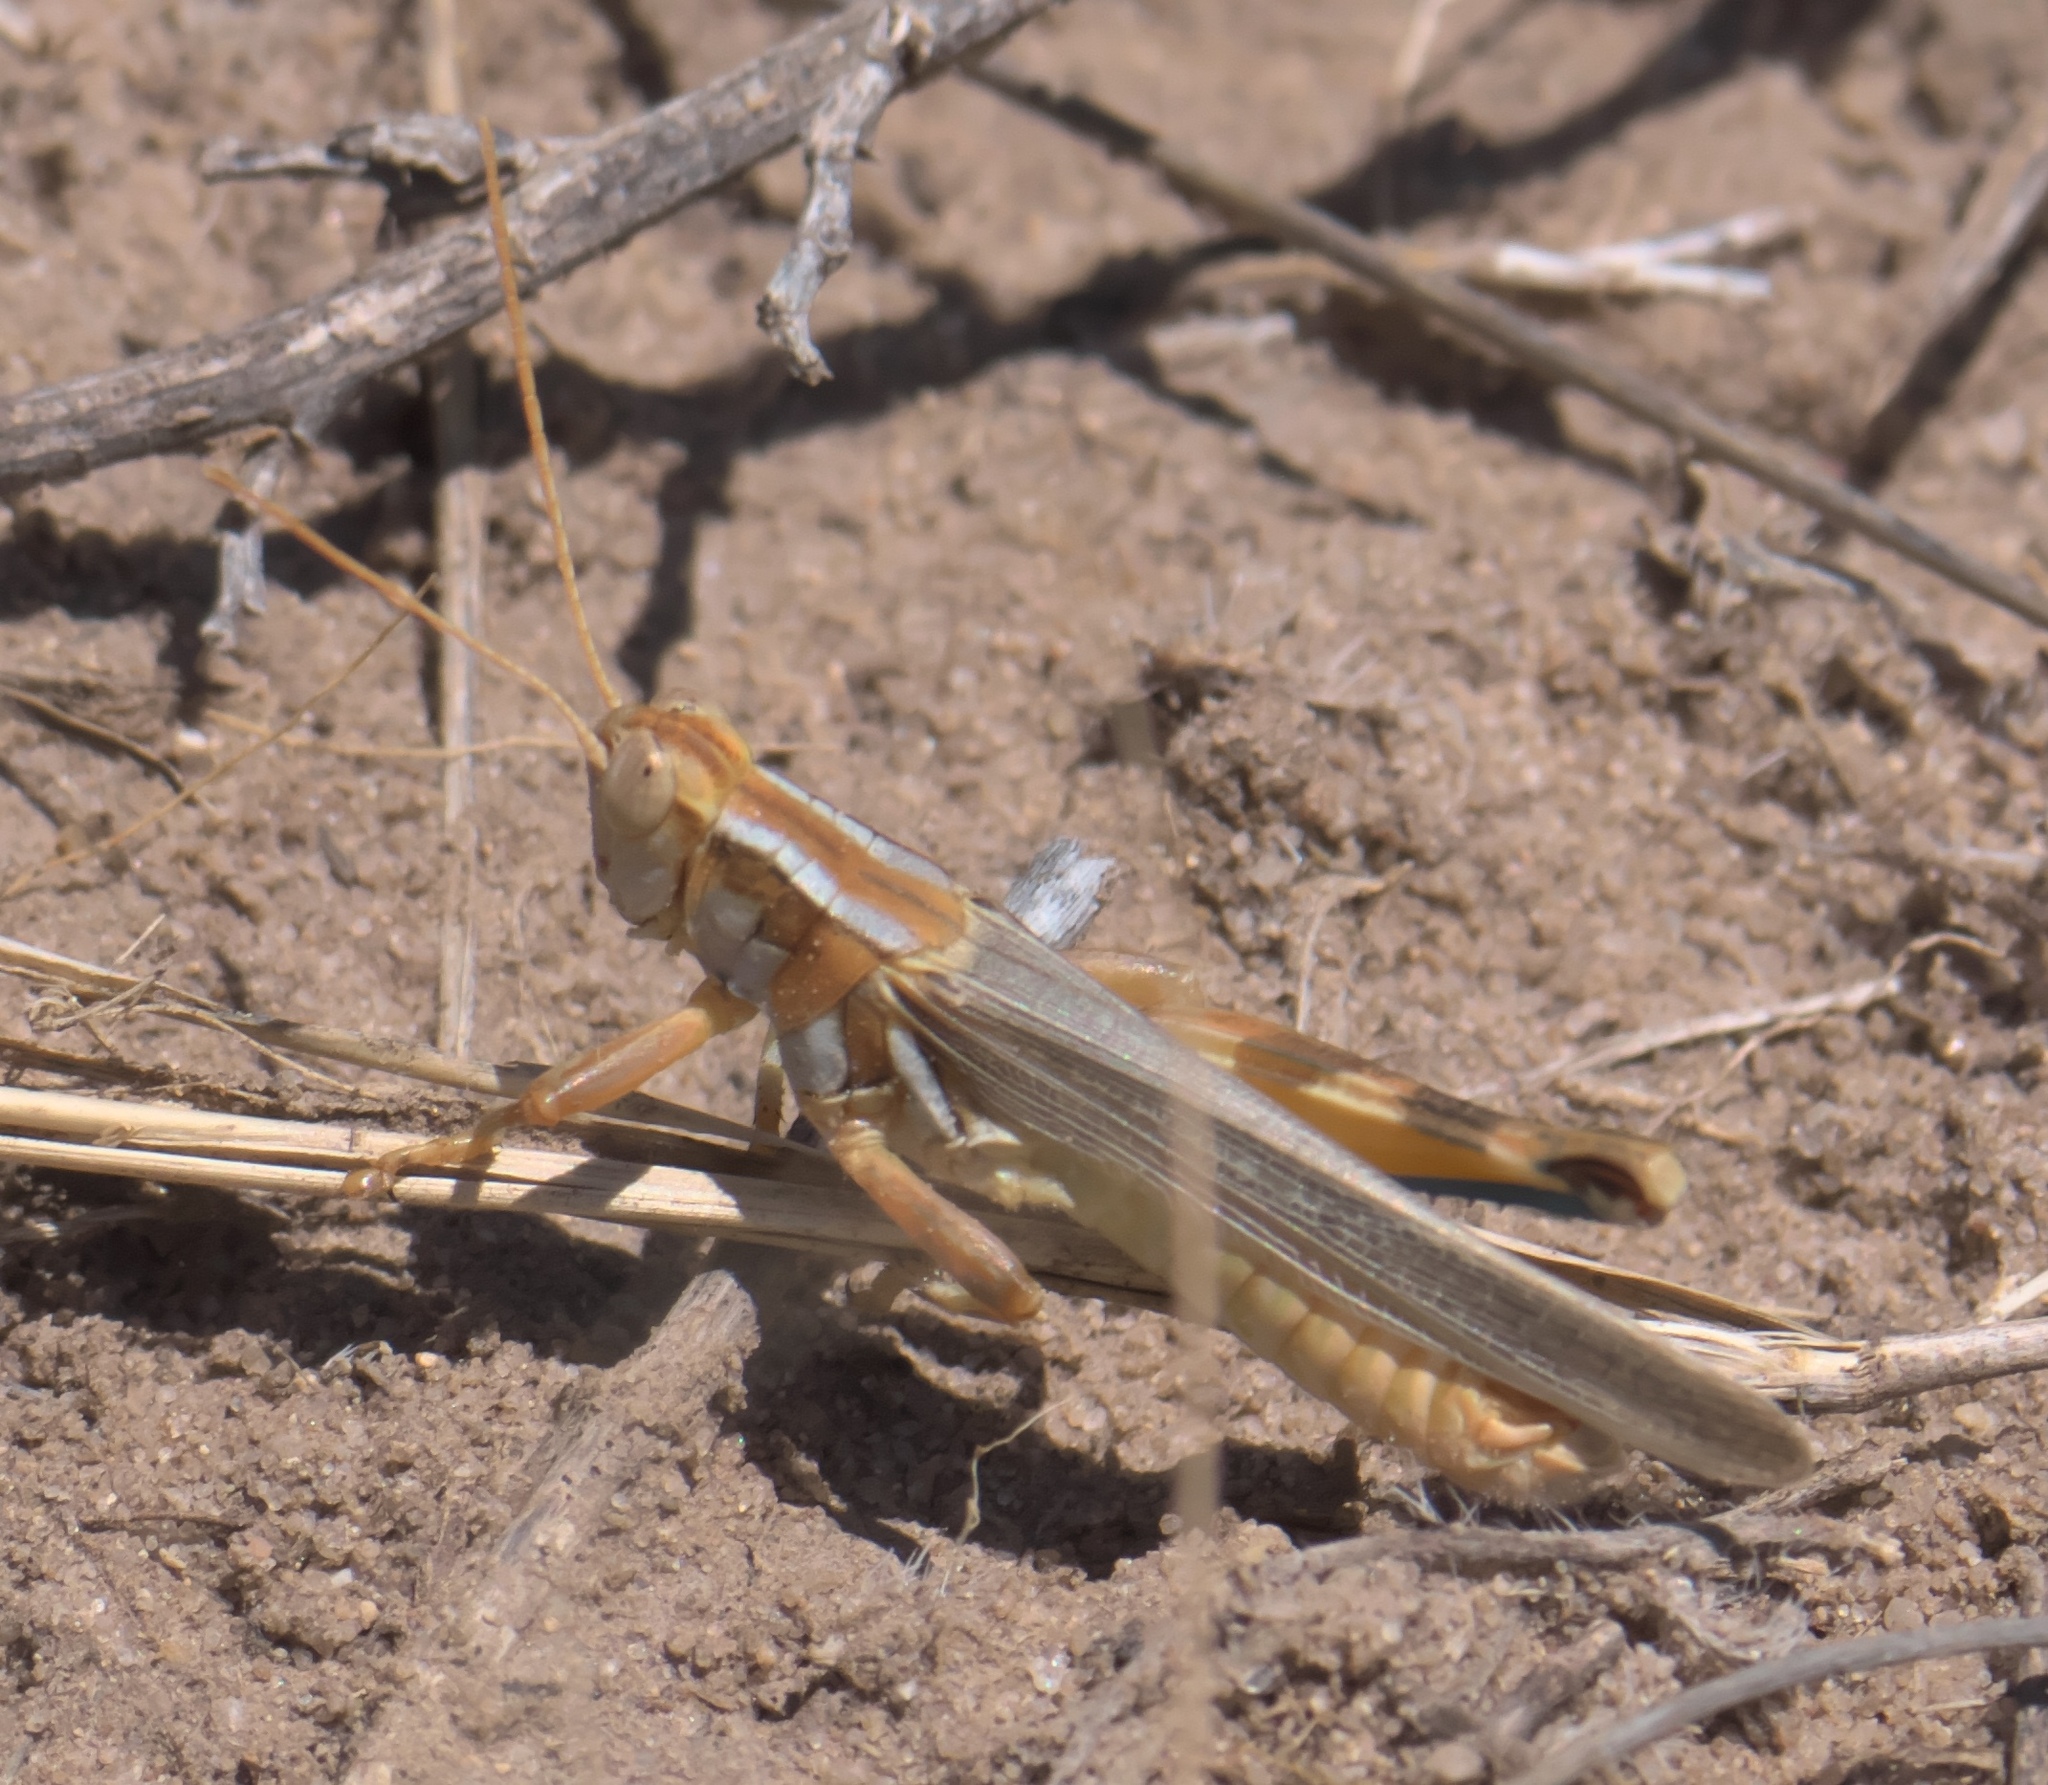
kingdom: Animalia
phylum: Arthropoda
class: Insecta
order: Orthoptera
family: Acrididae
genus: Melanoplus
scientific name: Melanoplus flavidus
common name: Blue-legged locust
